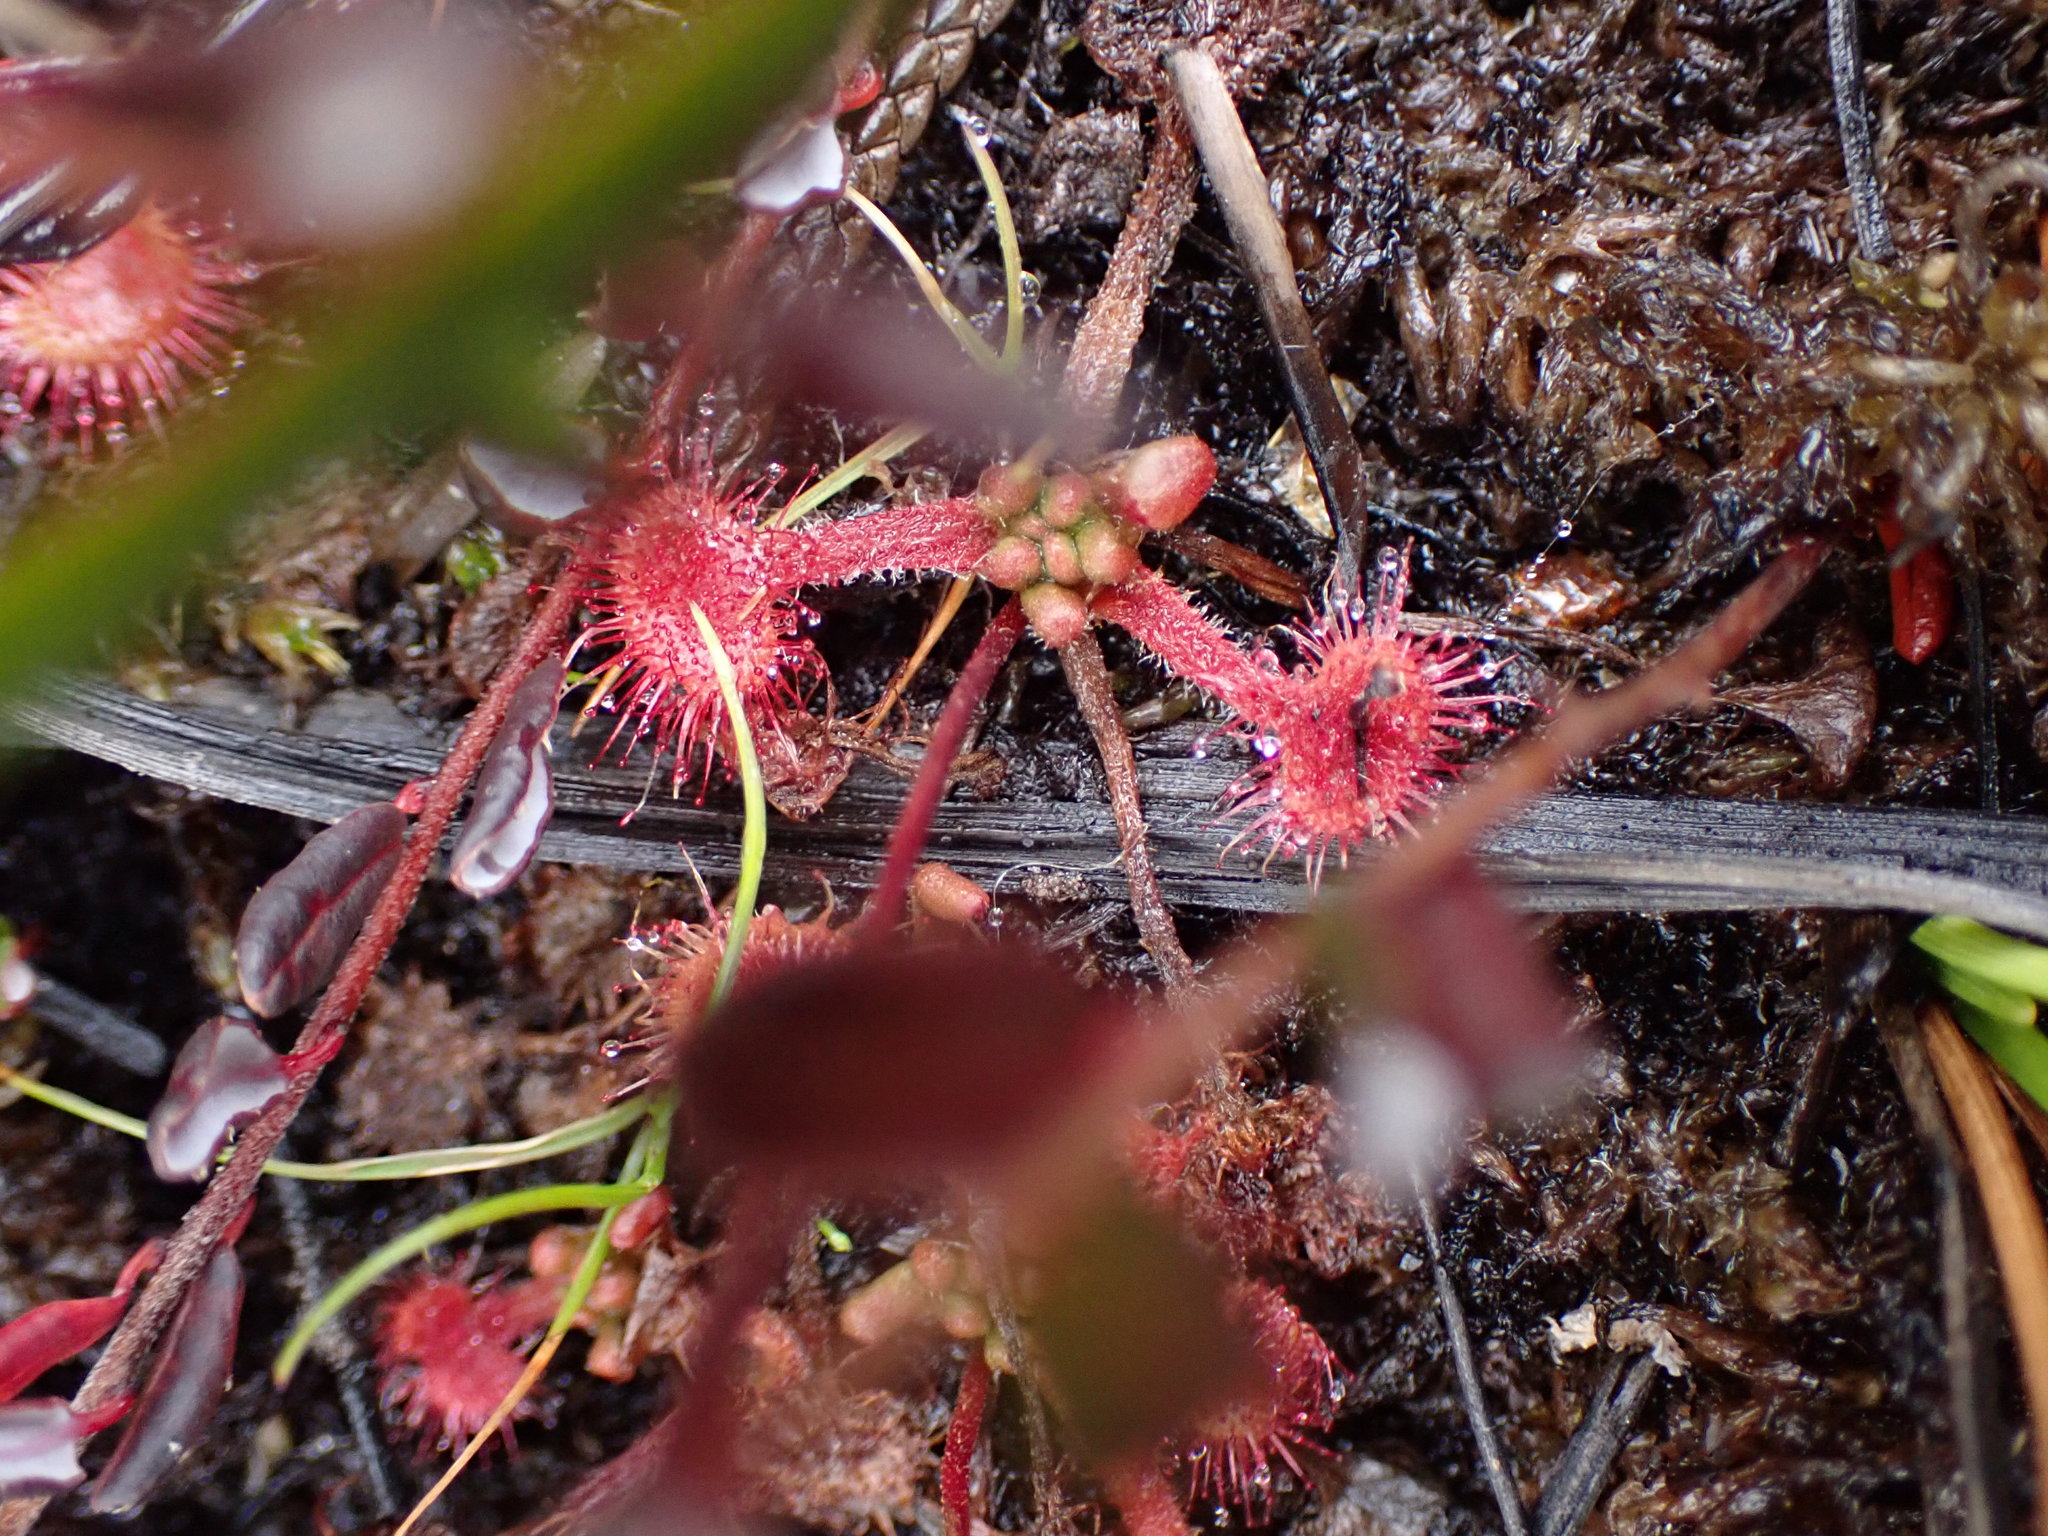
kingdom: Plantae
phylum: Tracheophyta
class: Magnoliopsida
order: Caryophyllales
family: Droseraceae
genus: Drosera
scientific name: Drosera rotundifolia
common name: Round-leaved sundew
